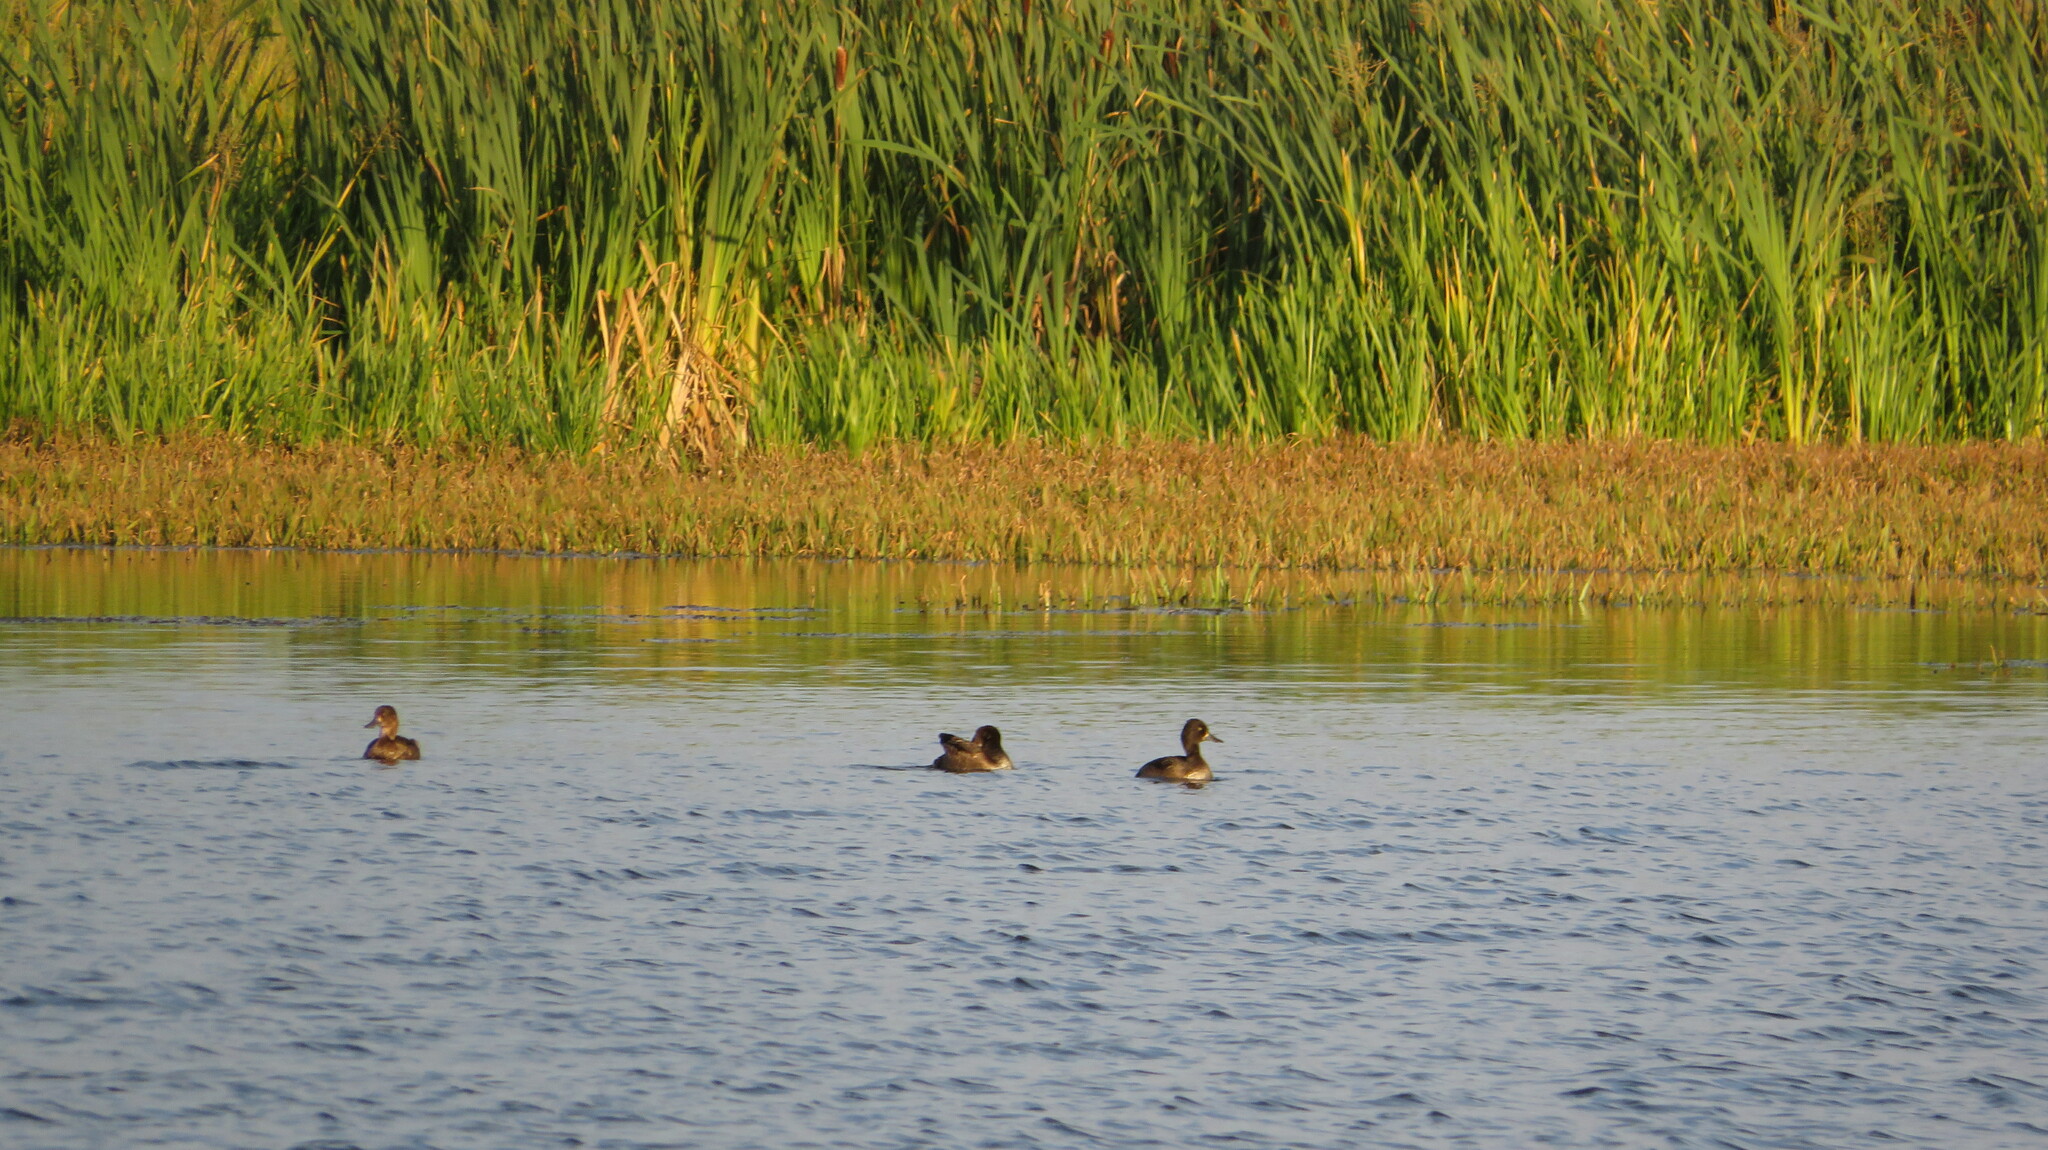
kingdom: Animalia
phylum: Chordata
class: Aves
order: Anseriformes
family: Anatidae
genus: Aythya
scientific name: Aythya fuligula
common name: Tufted duck
